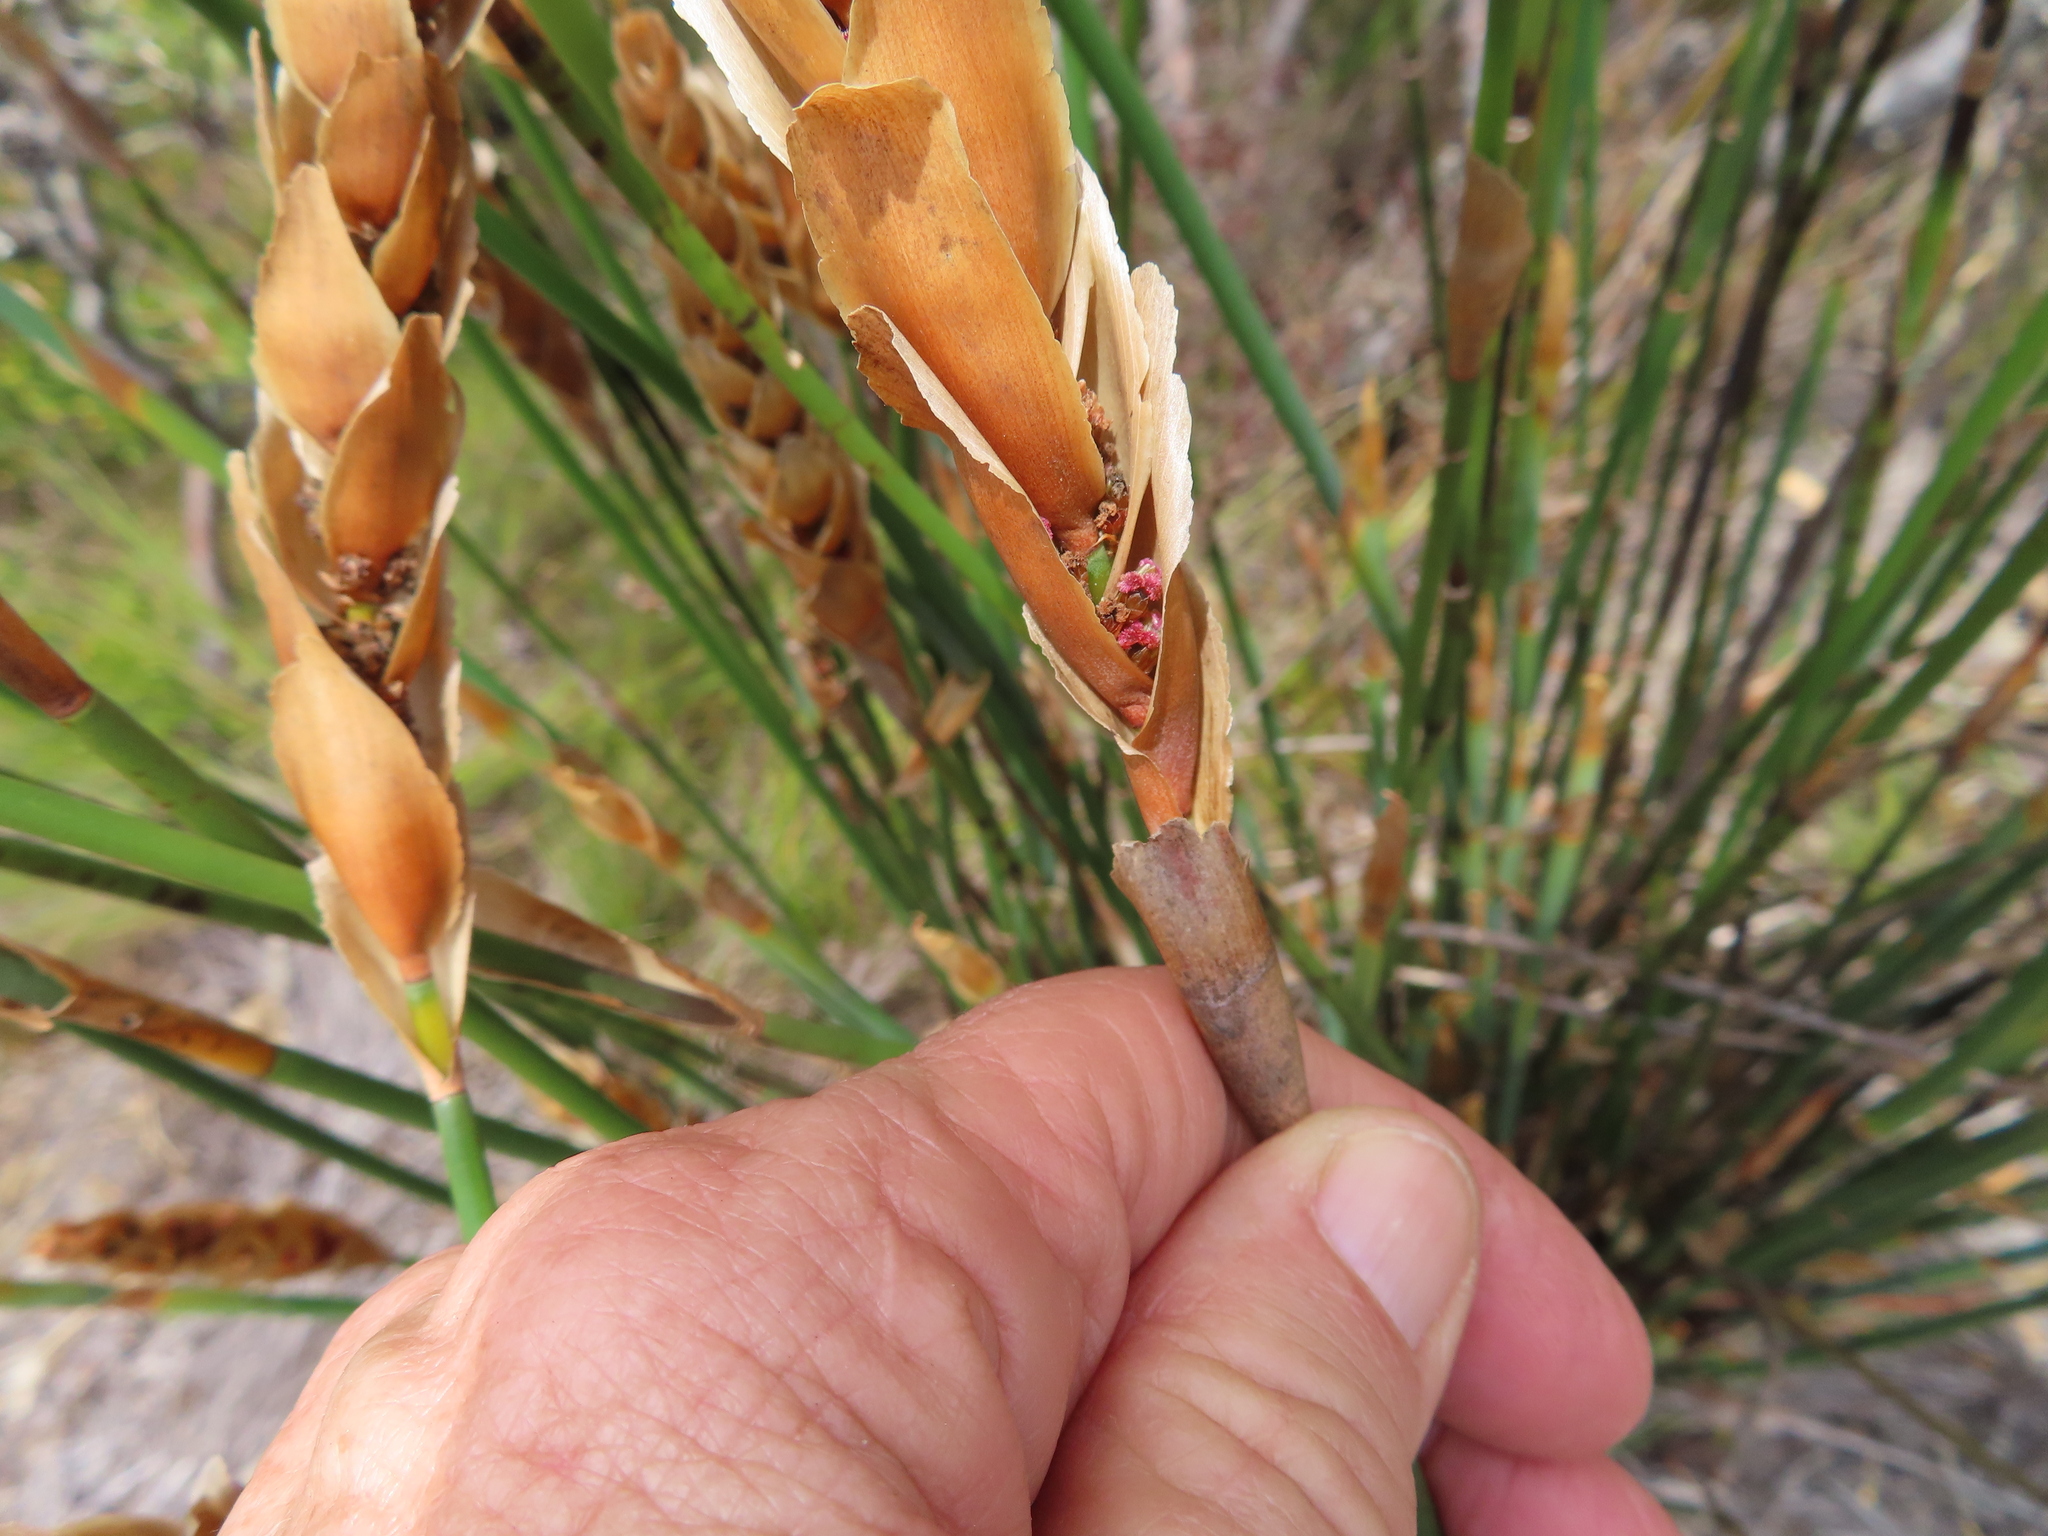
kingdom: Plantae
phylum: Tracheophyta
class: Liliopsida
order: Poales
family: Restionaceae
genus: Elegia
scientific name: Elegia fistulosa
